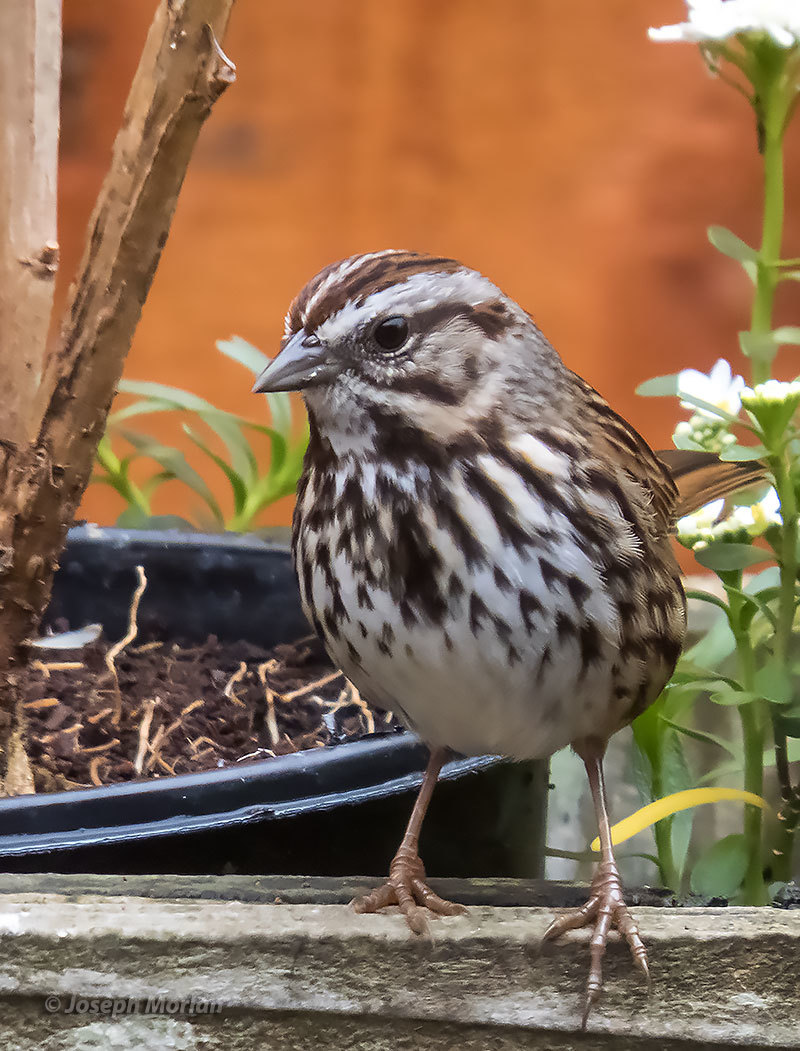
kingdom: Animalia
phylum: Chordata
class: Aves
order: Passeriformes
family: Passerellidae
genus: Melospiza
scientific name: Melospiza melodia
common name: Song sparrow
